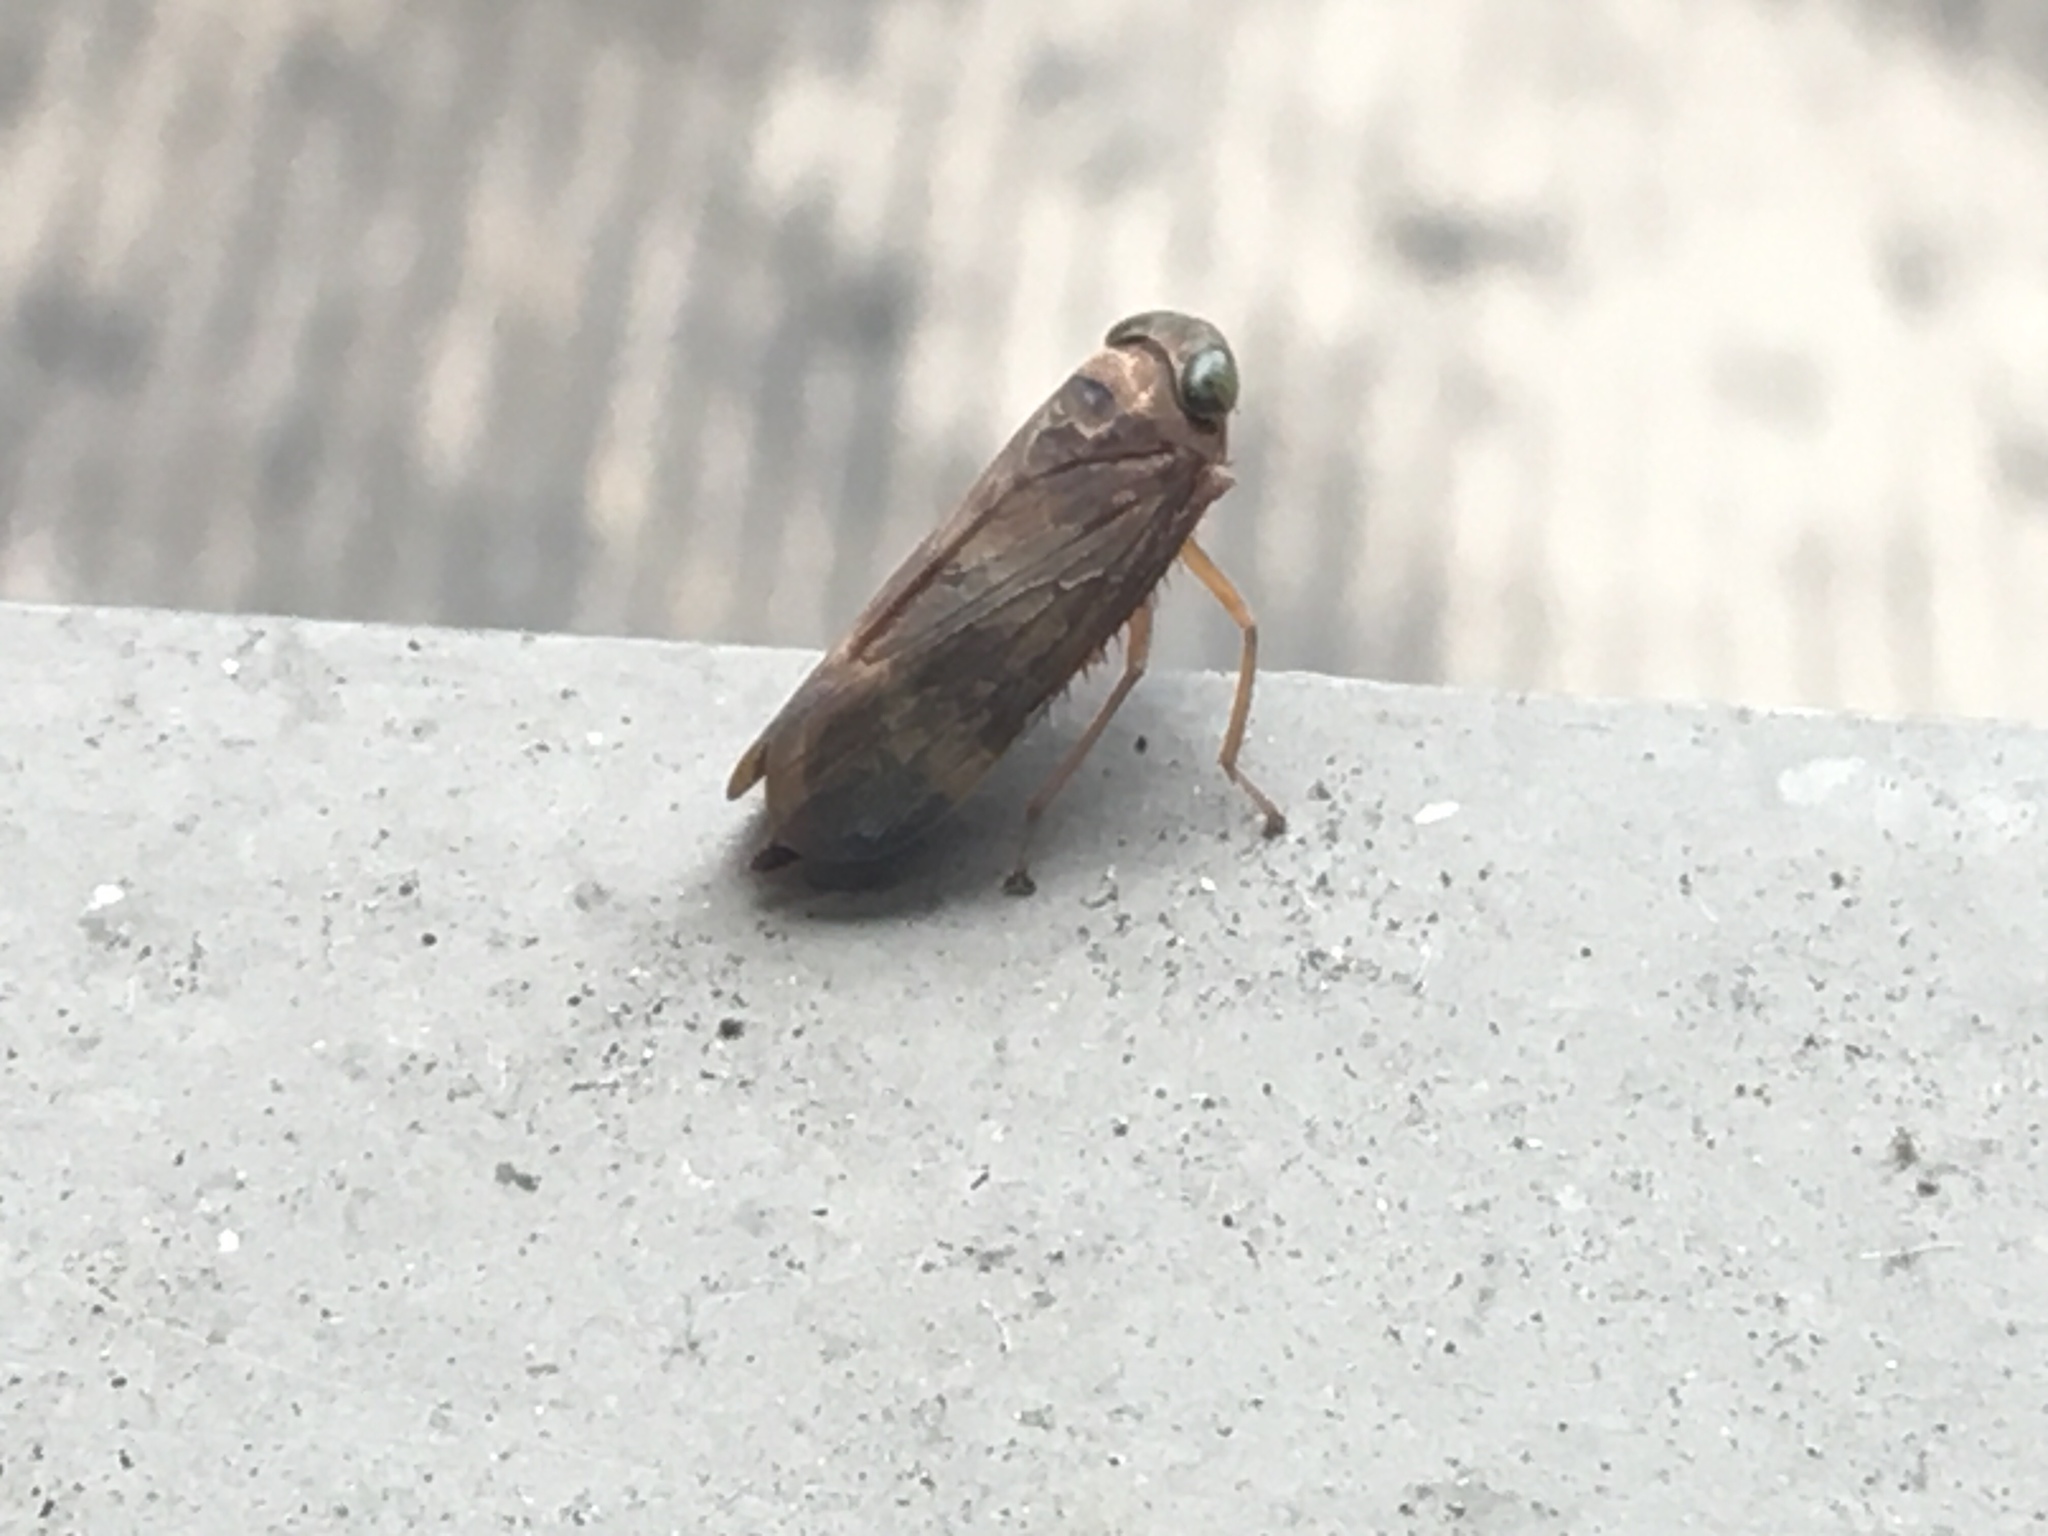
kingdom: Animalia
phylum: Arthropoda
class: Insecta
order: Hemiptera
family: Cicadellidae
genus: Jikradia
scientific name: Jikradia olitoria
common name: Coppery leafhopper
